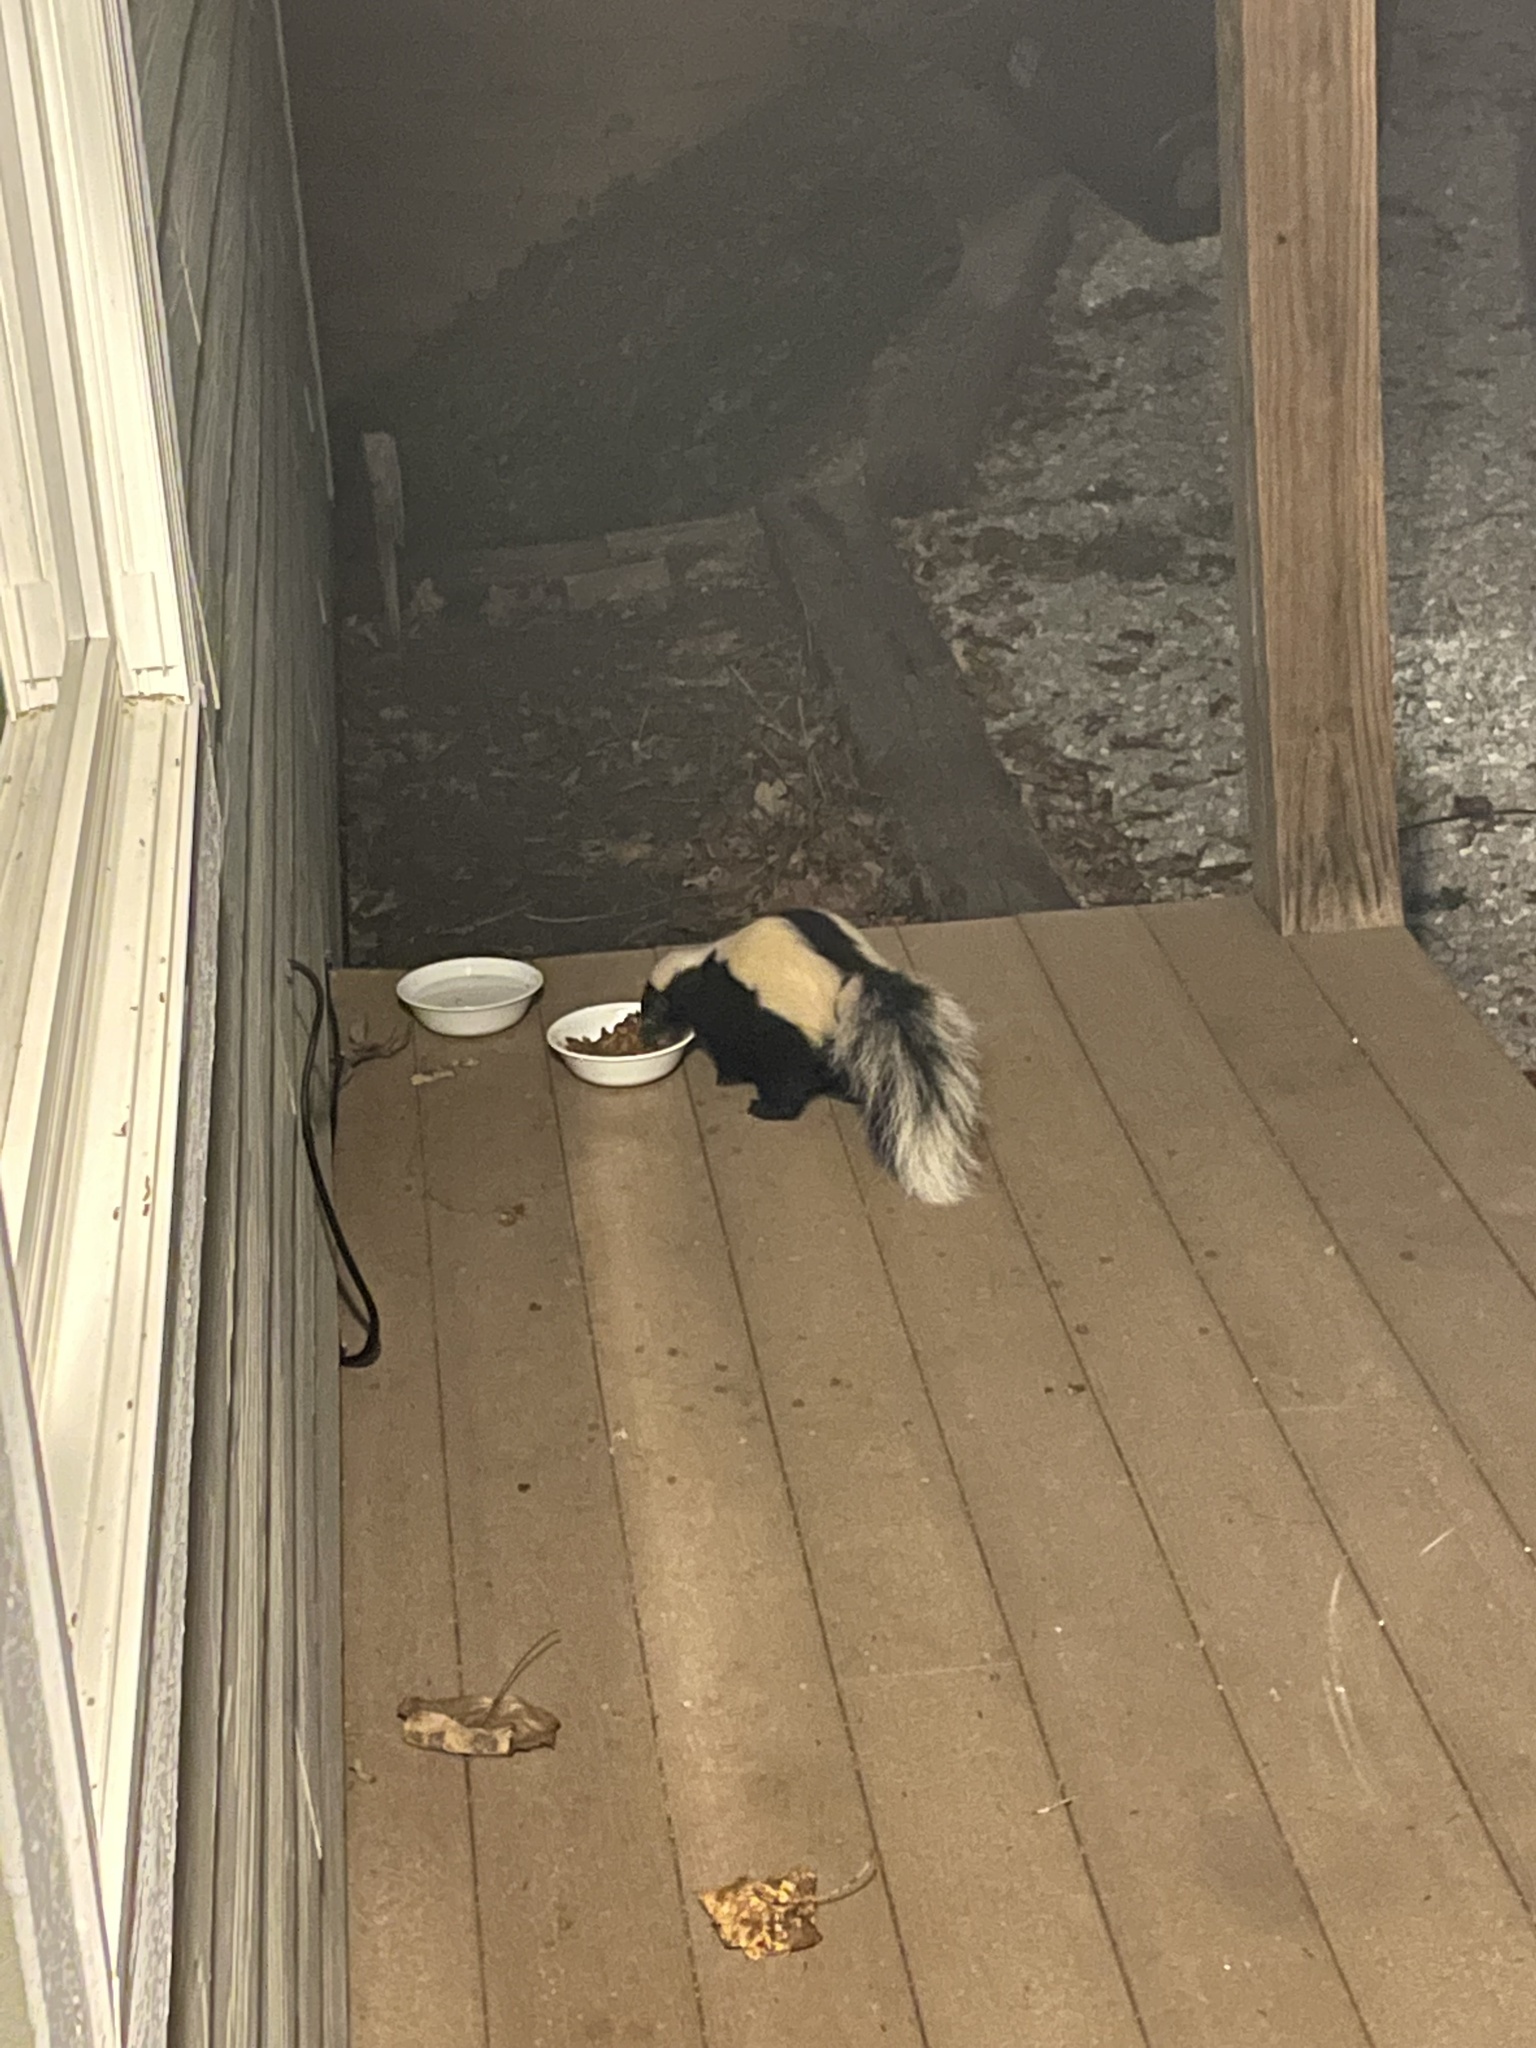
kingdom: Animalia
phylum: Chordata
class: Mammalia
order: Carnivora
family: Mephitidae
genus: Mephitis
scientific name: Mephitis mephitis
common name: Striped skunk
